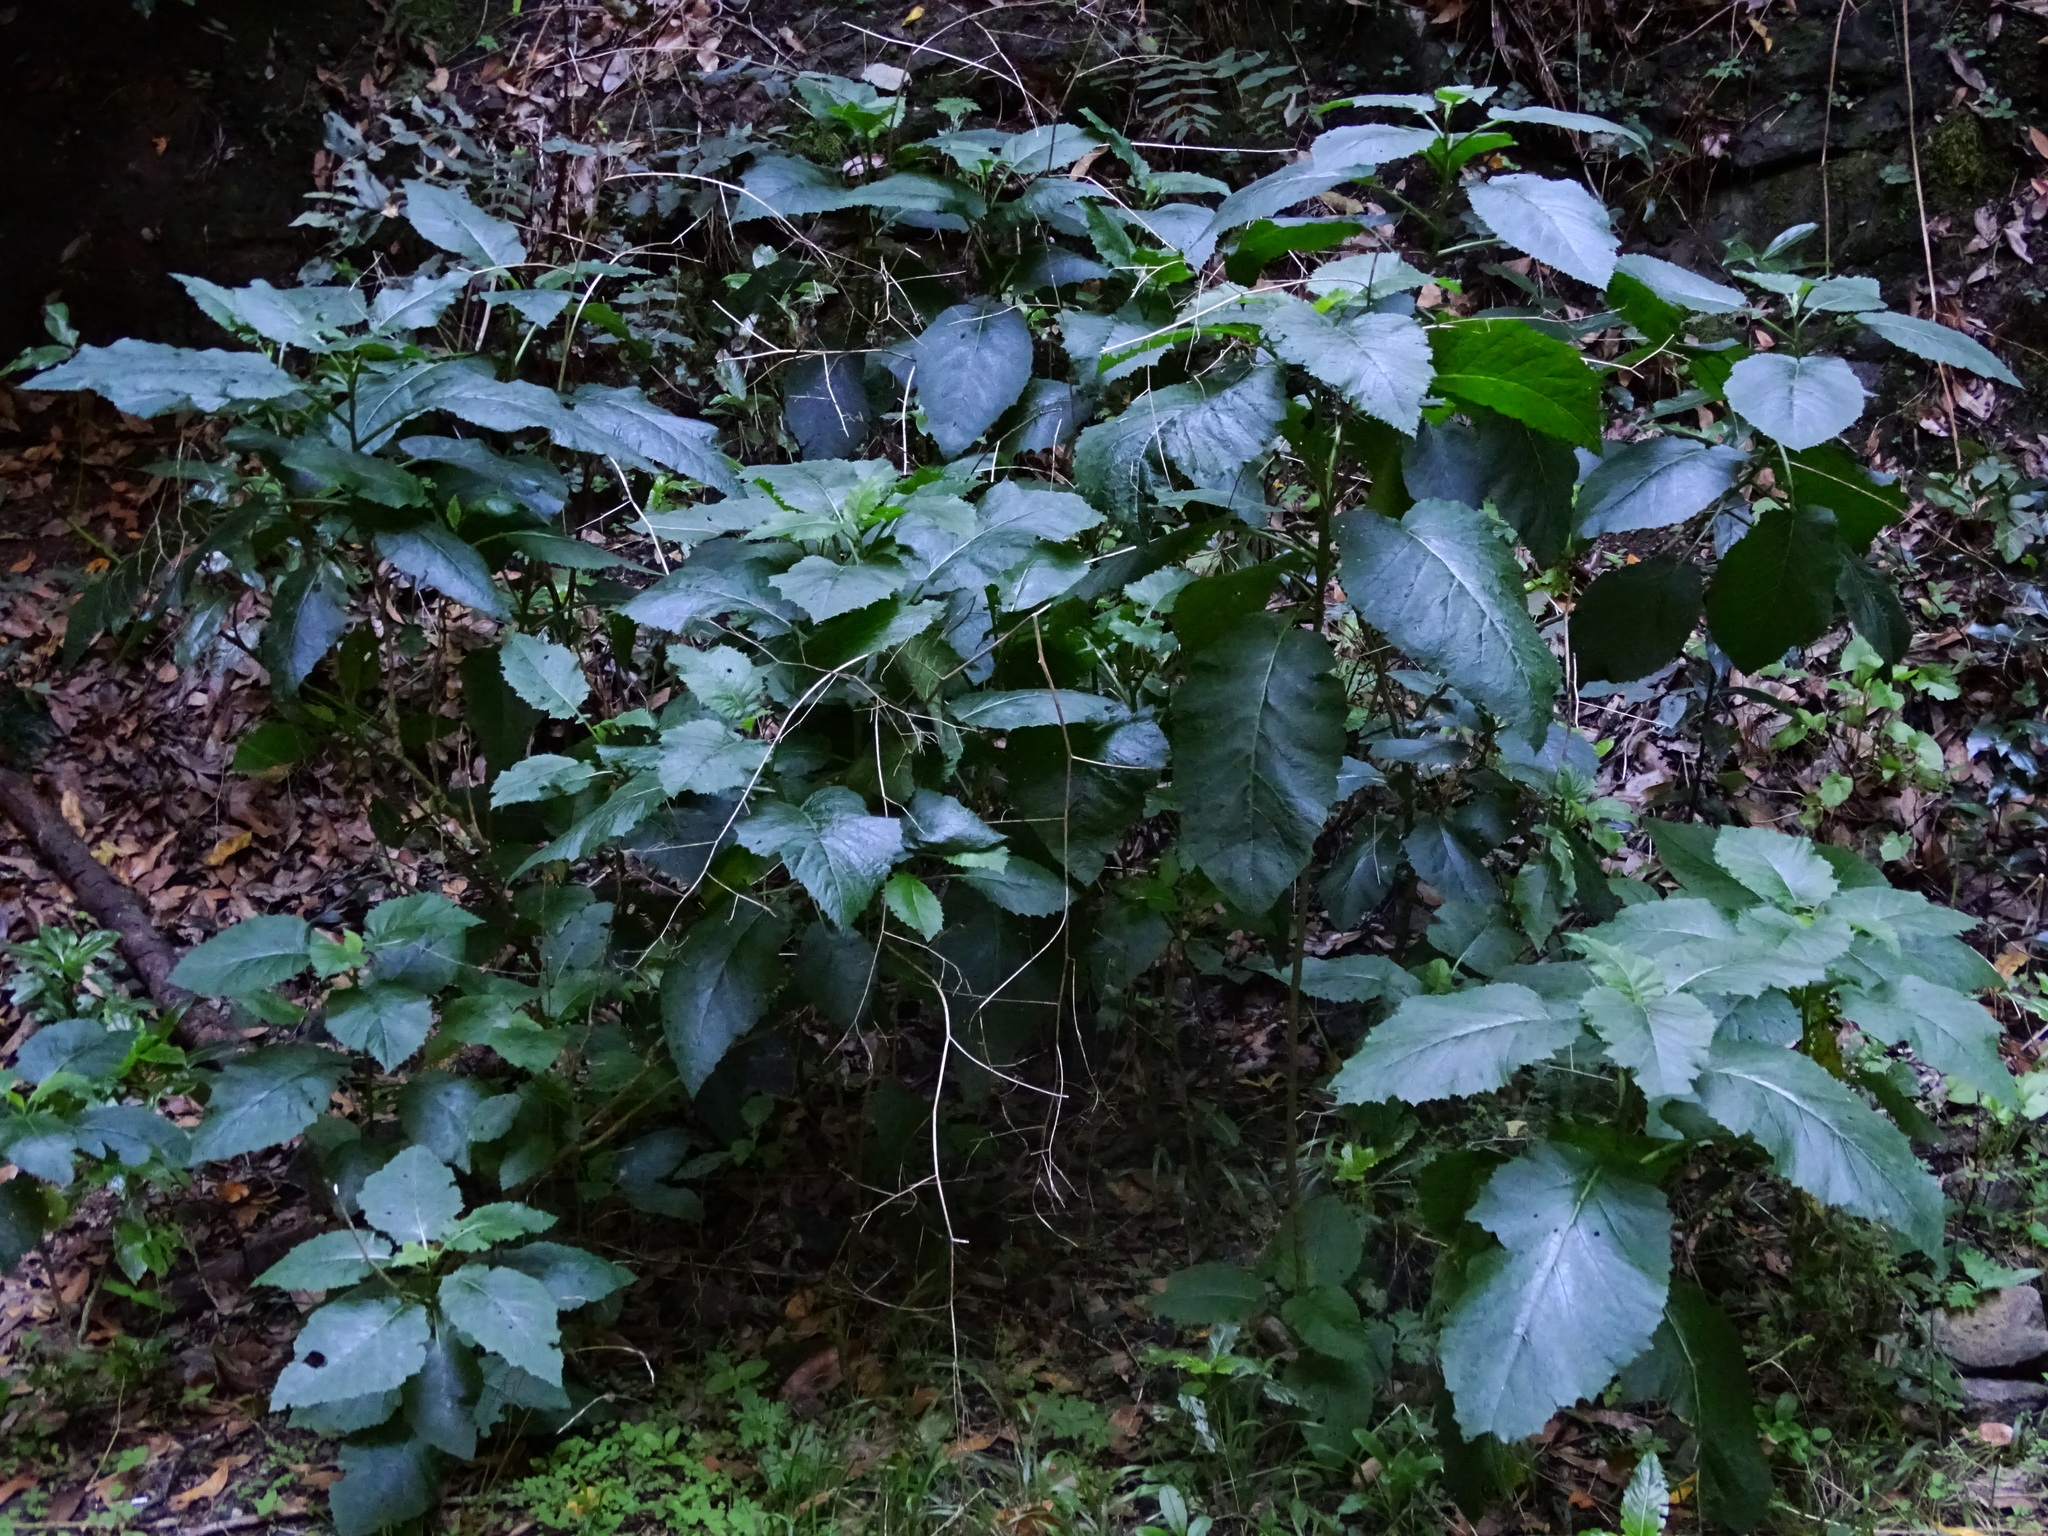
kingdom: Plantae
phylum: Tracheophyta
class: Magnoliopsida
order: Brassicales
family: Brassicaceae
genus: Crambe
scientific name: Crambe strigosa
